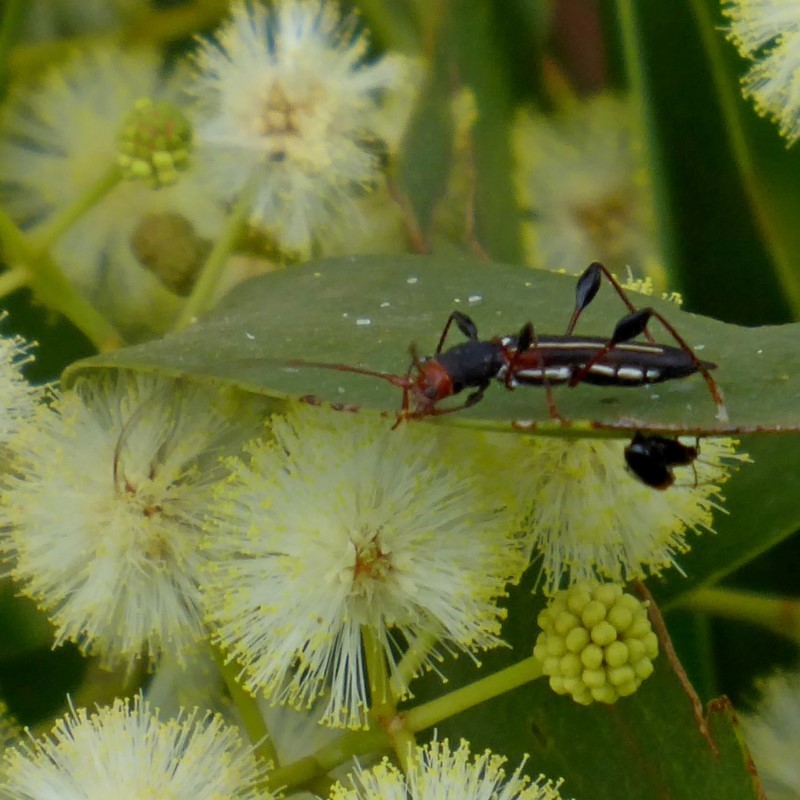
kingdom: Animalia
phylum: Arthropoda
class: Insecta
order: Coleoptera
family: Cerambycidae
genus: Amphirhoe
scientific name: Amphirhoe sloanei
